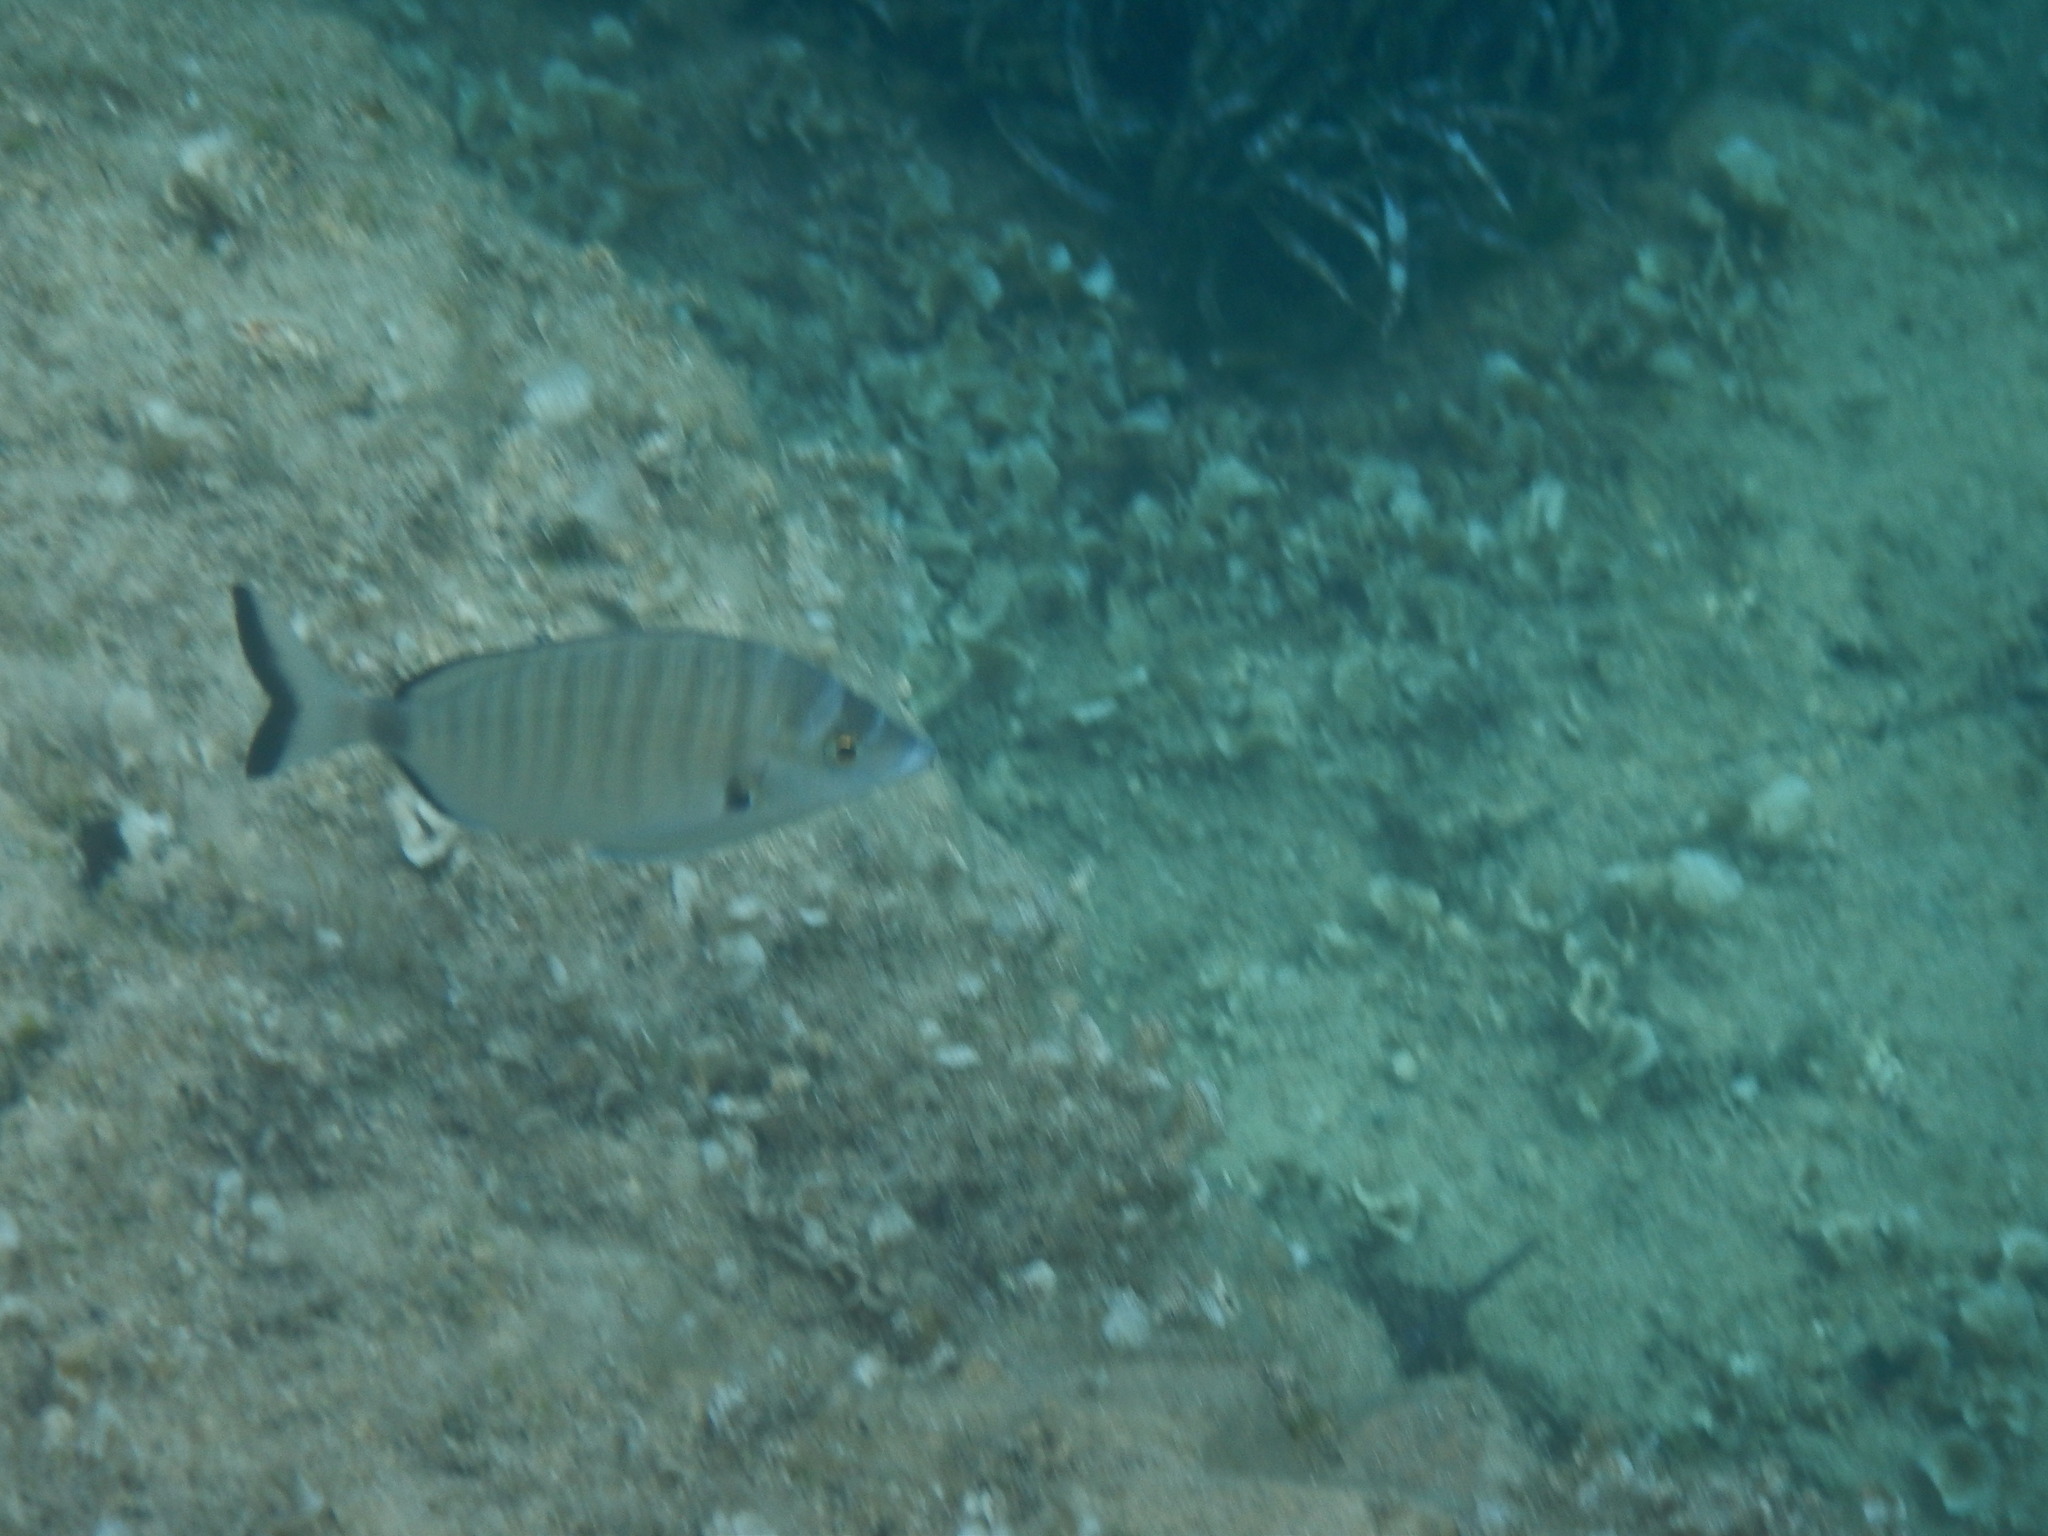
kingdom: Animalia
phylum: Chordata
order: Perciformes
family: Sparidae
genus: Diplodus
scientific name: Diplodus puntazzo
